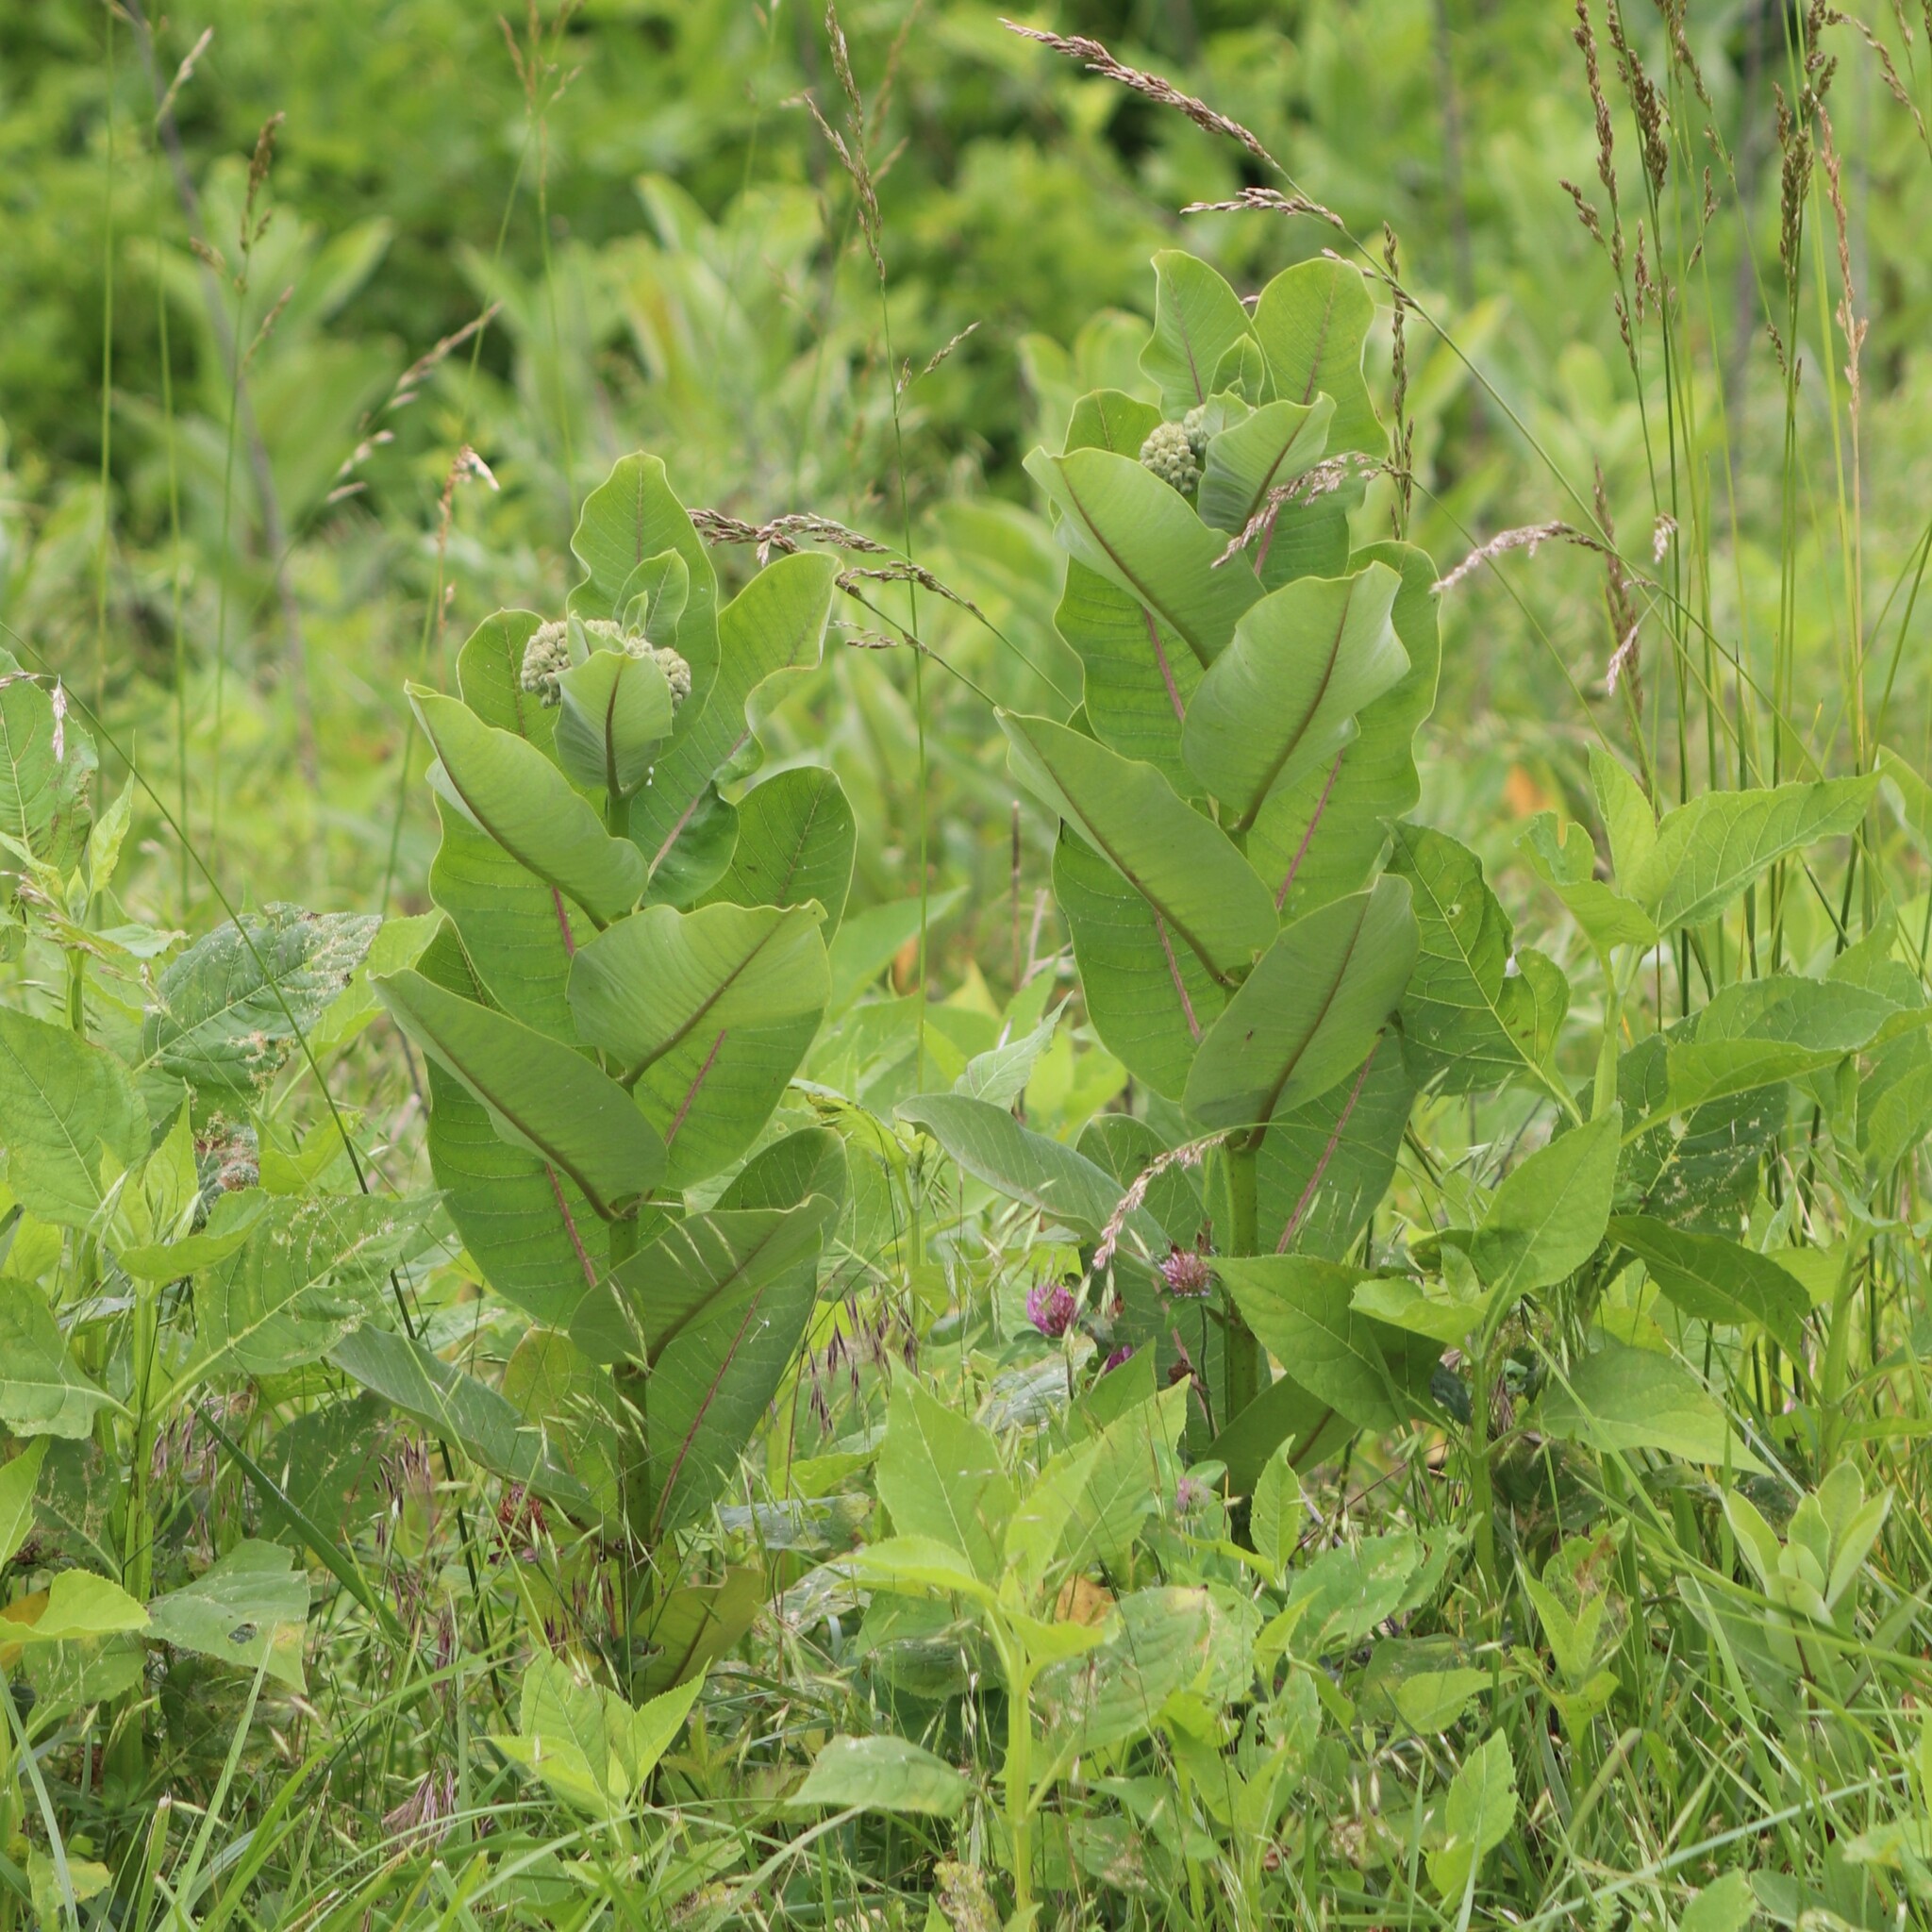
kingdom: Plantae
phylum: Tracheophyta
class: Magnoliopsida
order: Gentianales
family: Apocynaceae
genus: Asclepias
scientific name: Asclepias syriaca
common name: Common milkweed
